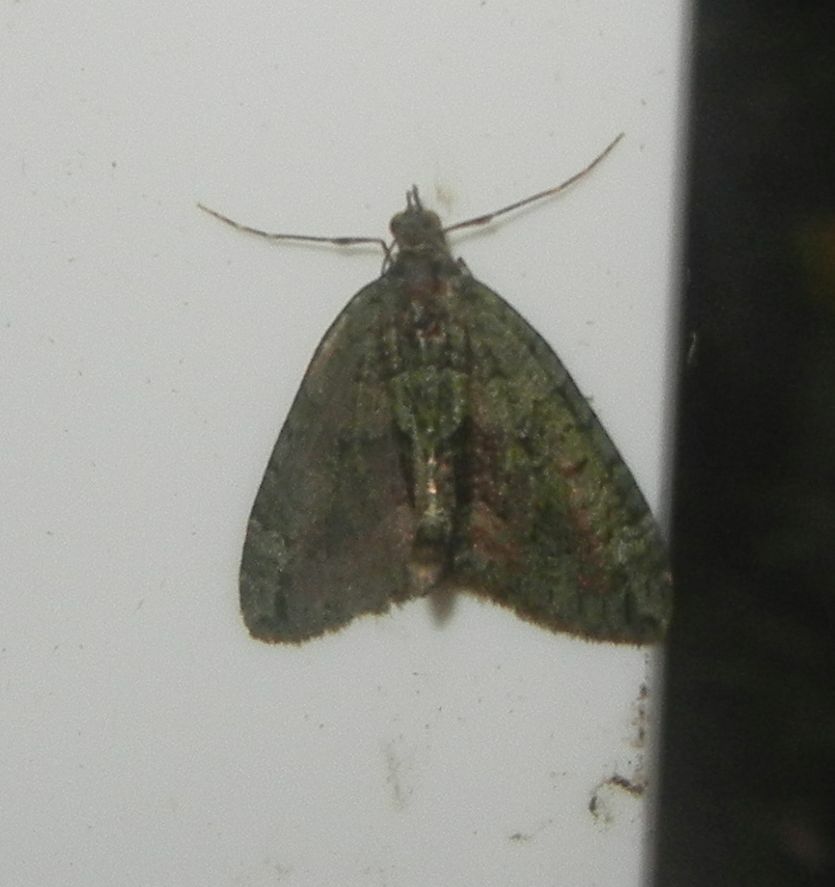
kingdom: Animalia
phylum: Arthropoda
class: Insecta
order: Lepidoptera
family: Geometridae
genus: Chloroclysta
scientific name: Chloroclysta siterata
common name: Red-green carpet
